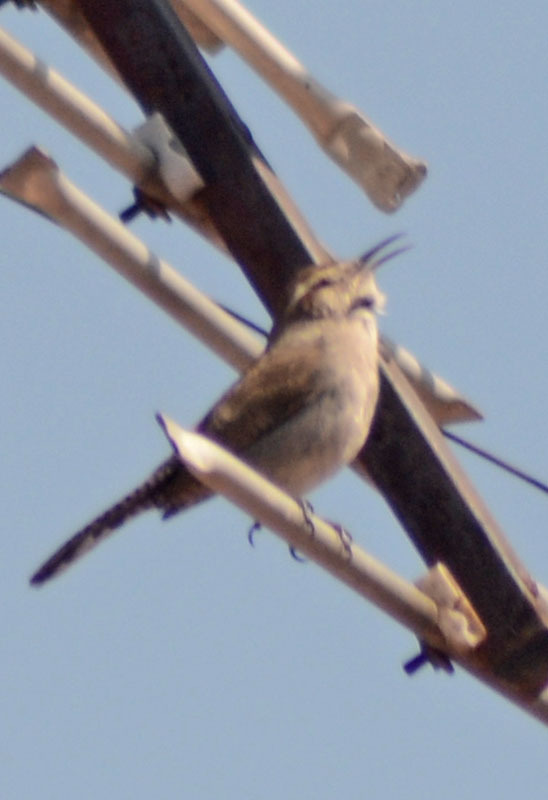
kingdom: Animalia
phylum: Chordata
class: Aves
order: Passeriformes
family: Troglodytidae
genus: Thryomanes
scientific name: Thryomanes bewickii
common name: Bewick's wren
